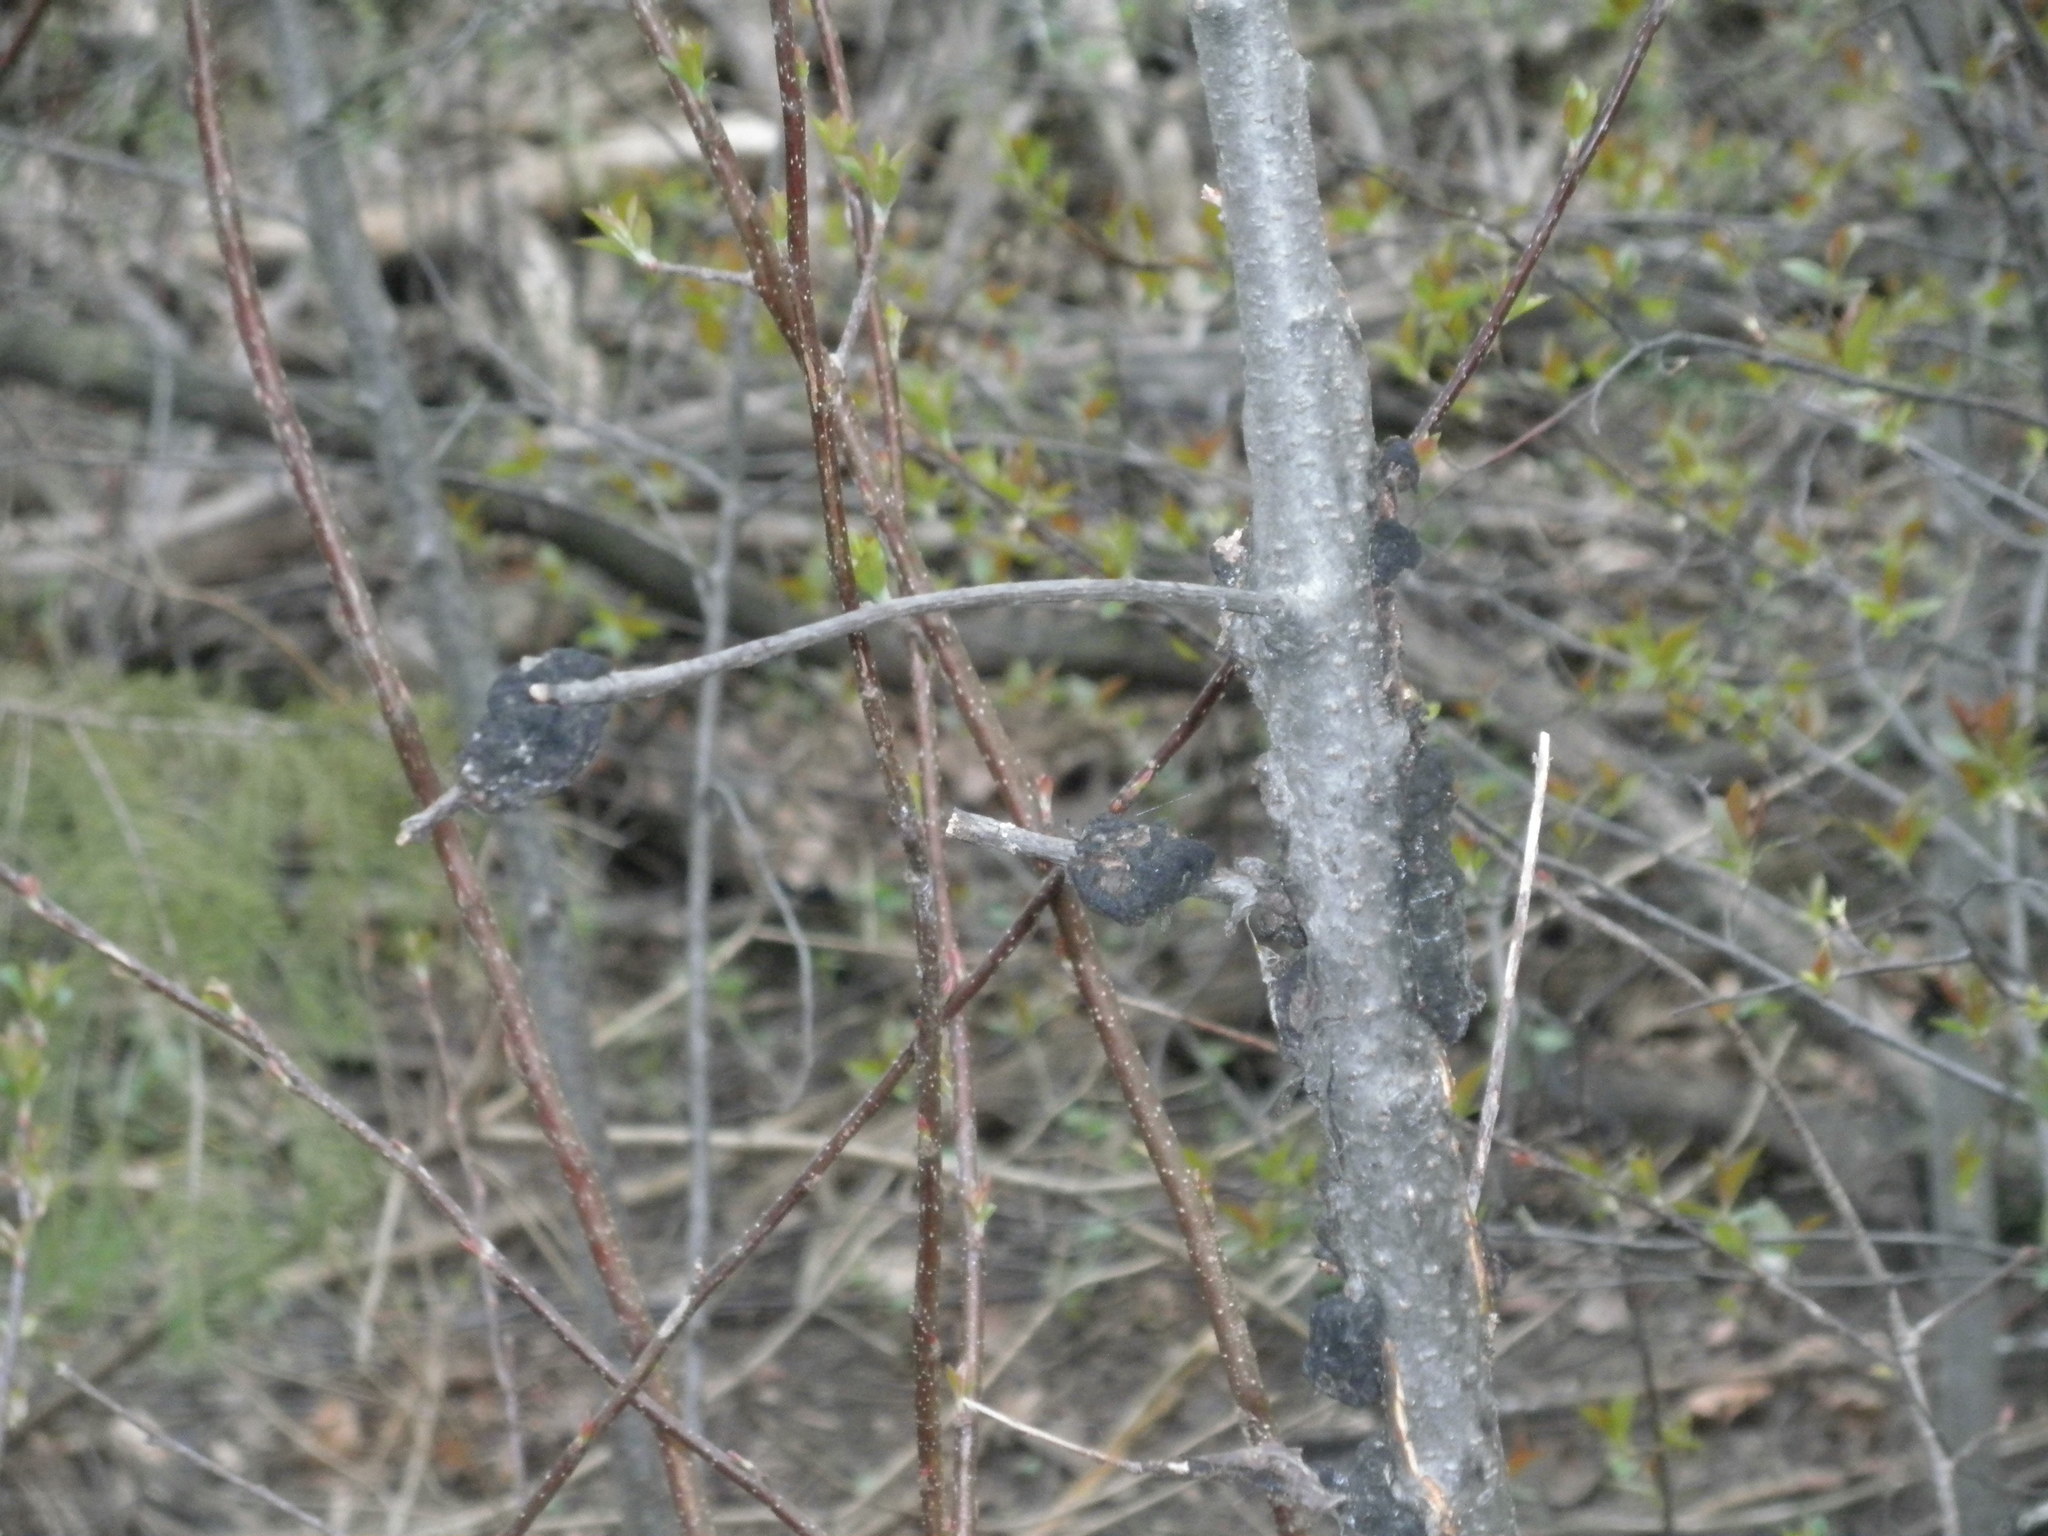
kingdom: Fungi
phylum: Ascomycota
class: Dothideomycetes
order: Venturiales
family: Venturiaceae
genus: Apiosporina
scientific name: Apiosporina morbosa
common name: Black knot
